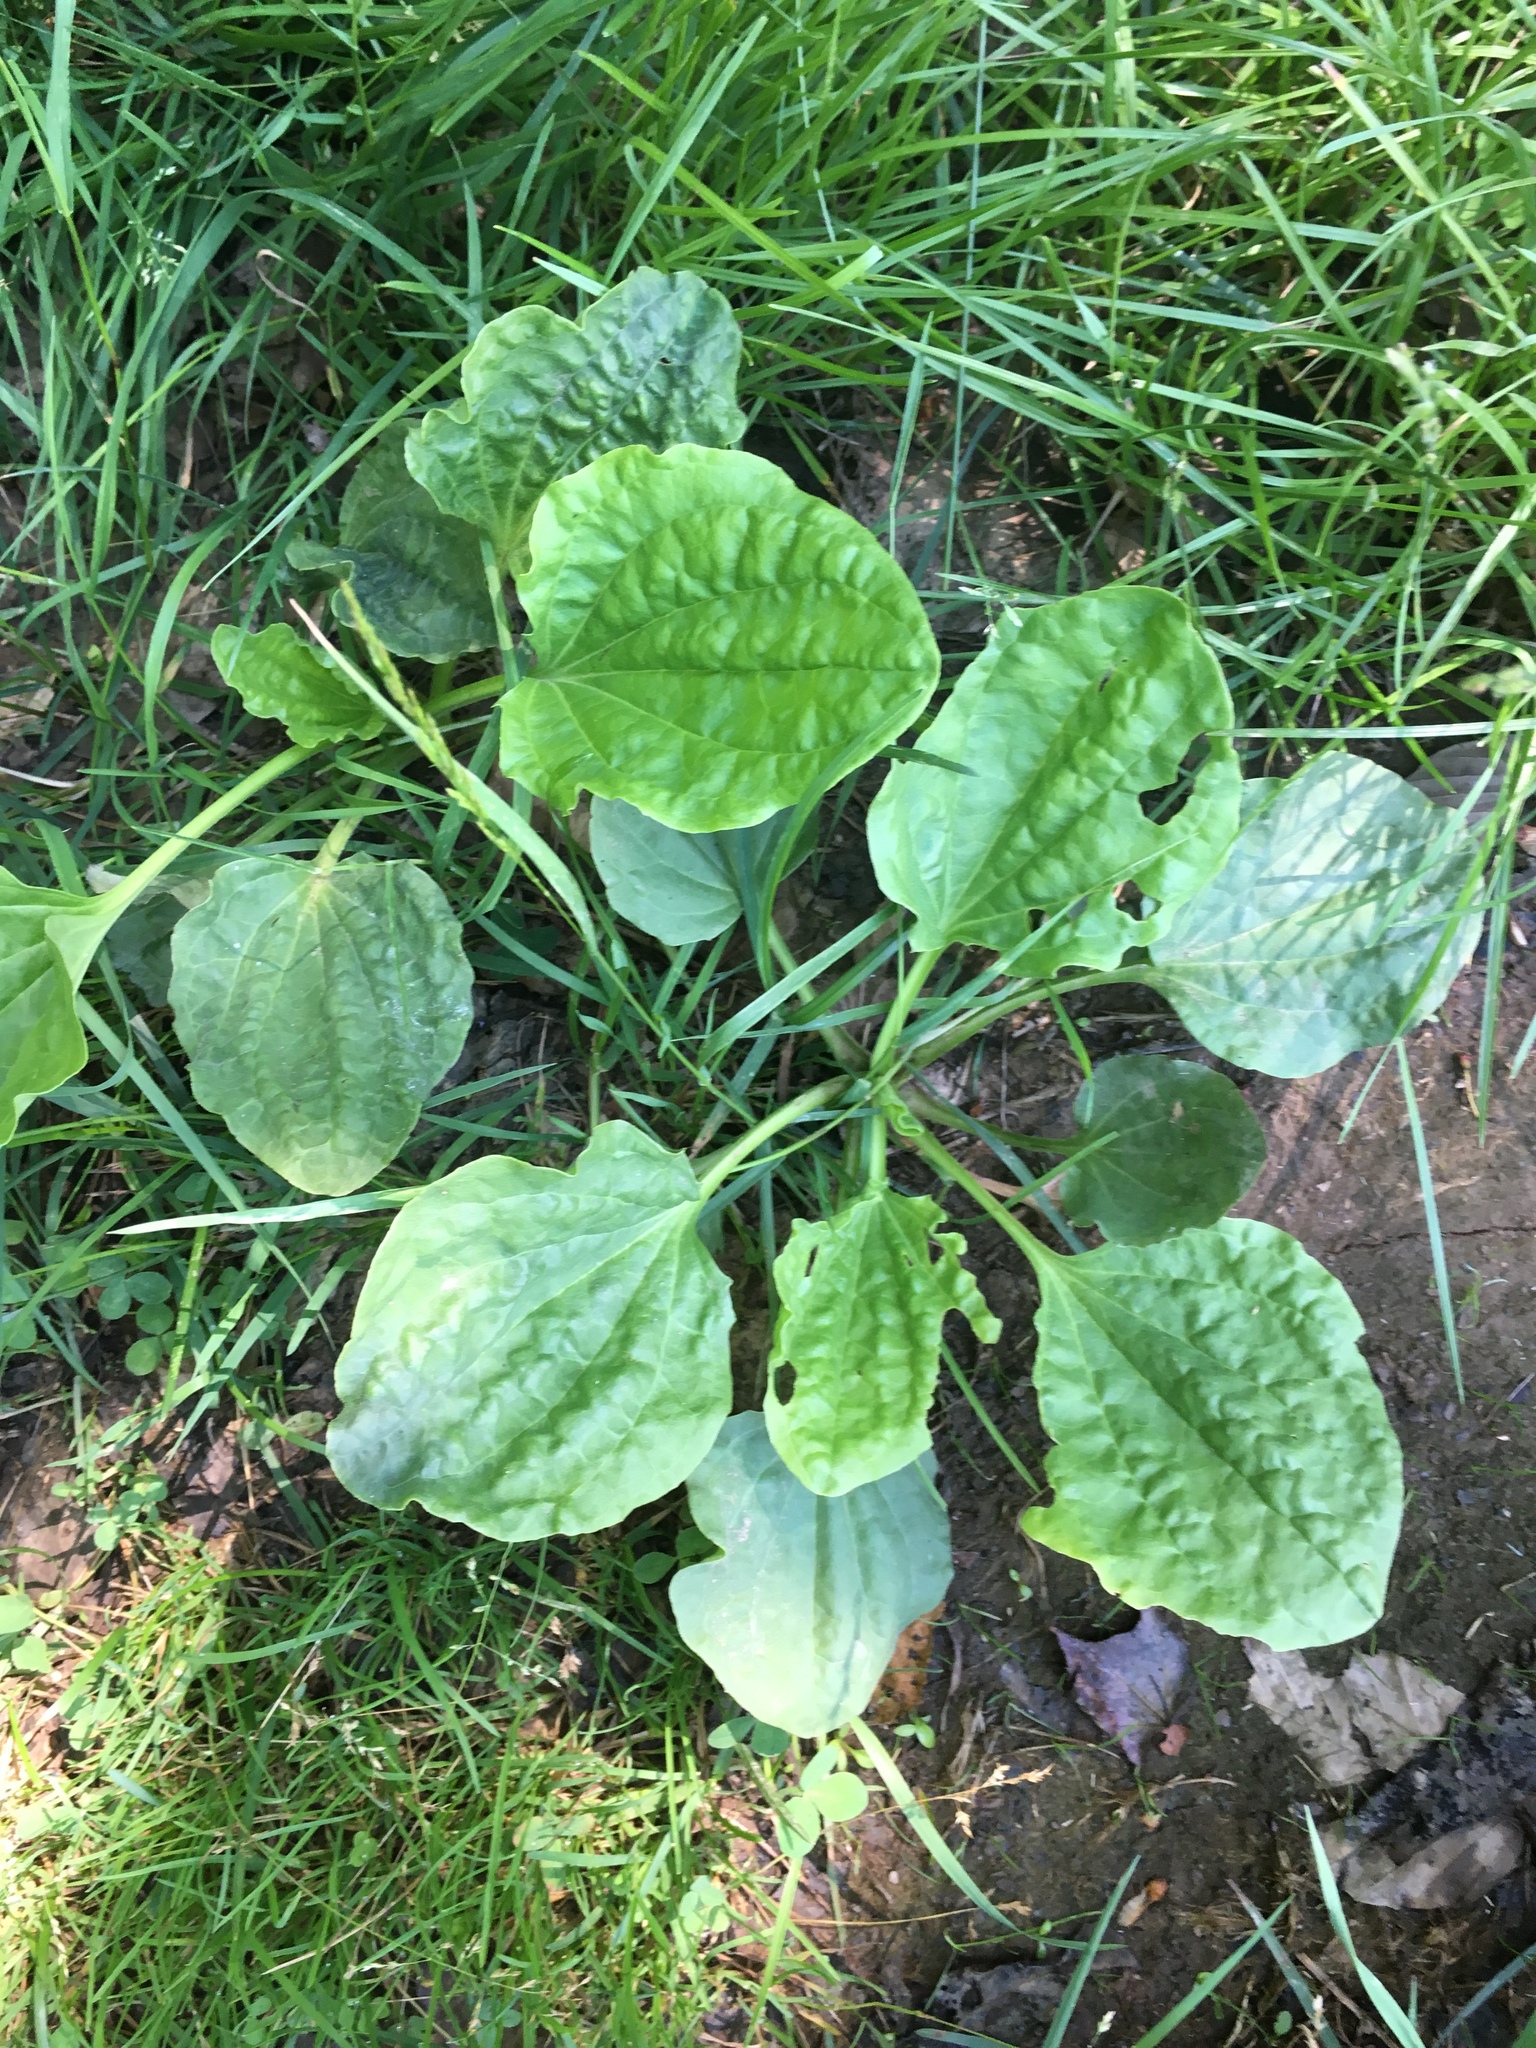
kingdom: Plantae
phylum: Tracheophyta
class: Magnoliopsida
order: Lamiales
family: Plantaginaceae
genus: Plantago
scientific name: Plantago major
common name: Common plantain
